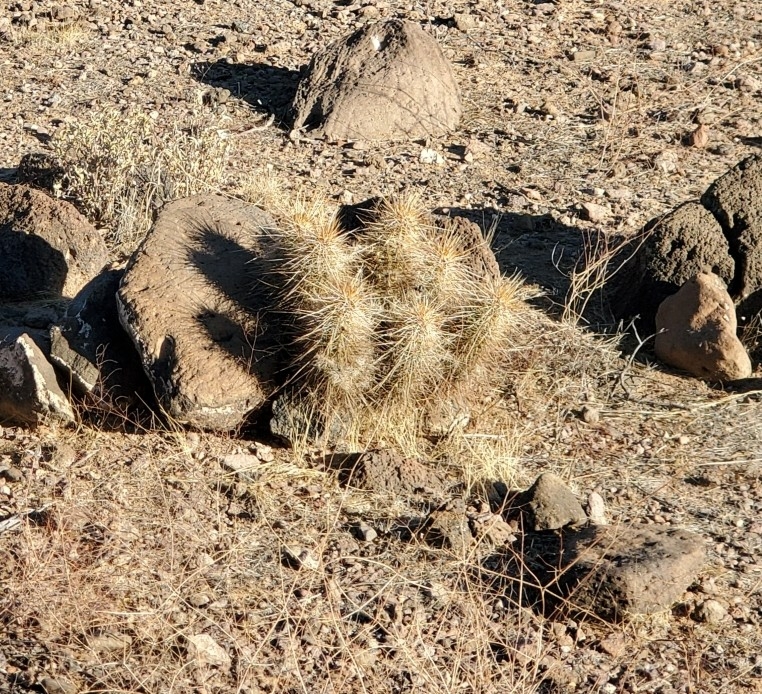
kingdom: Plantae
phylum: Tracheophyta
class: Magnoliopsida
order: Caryophyllales
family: Cactaceae
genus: Echinocereus
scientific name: Echinocereus engelmannii
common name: Engelmann's hedgehog cactus
